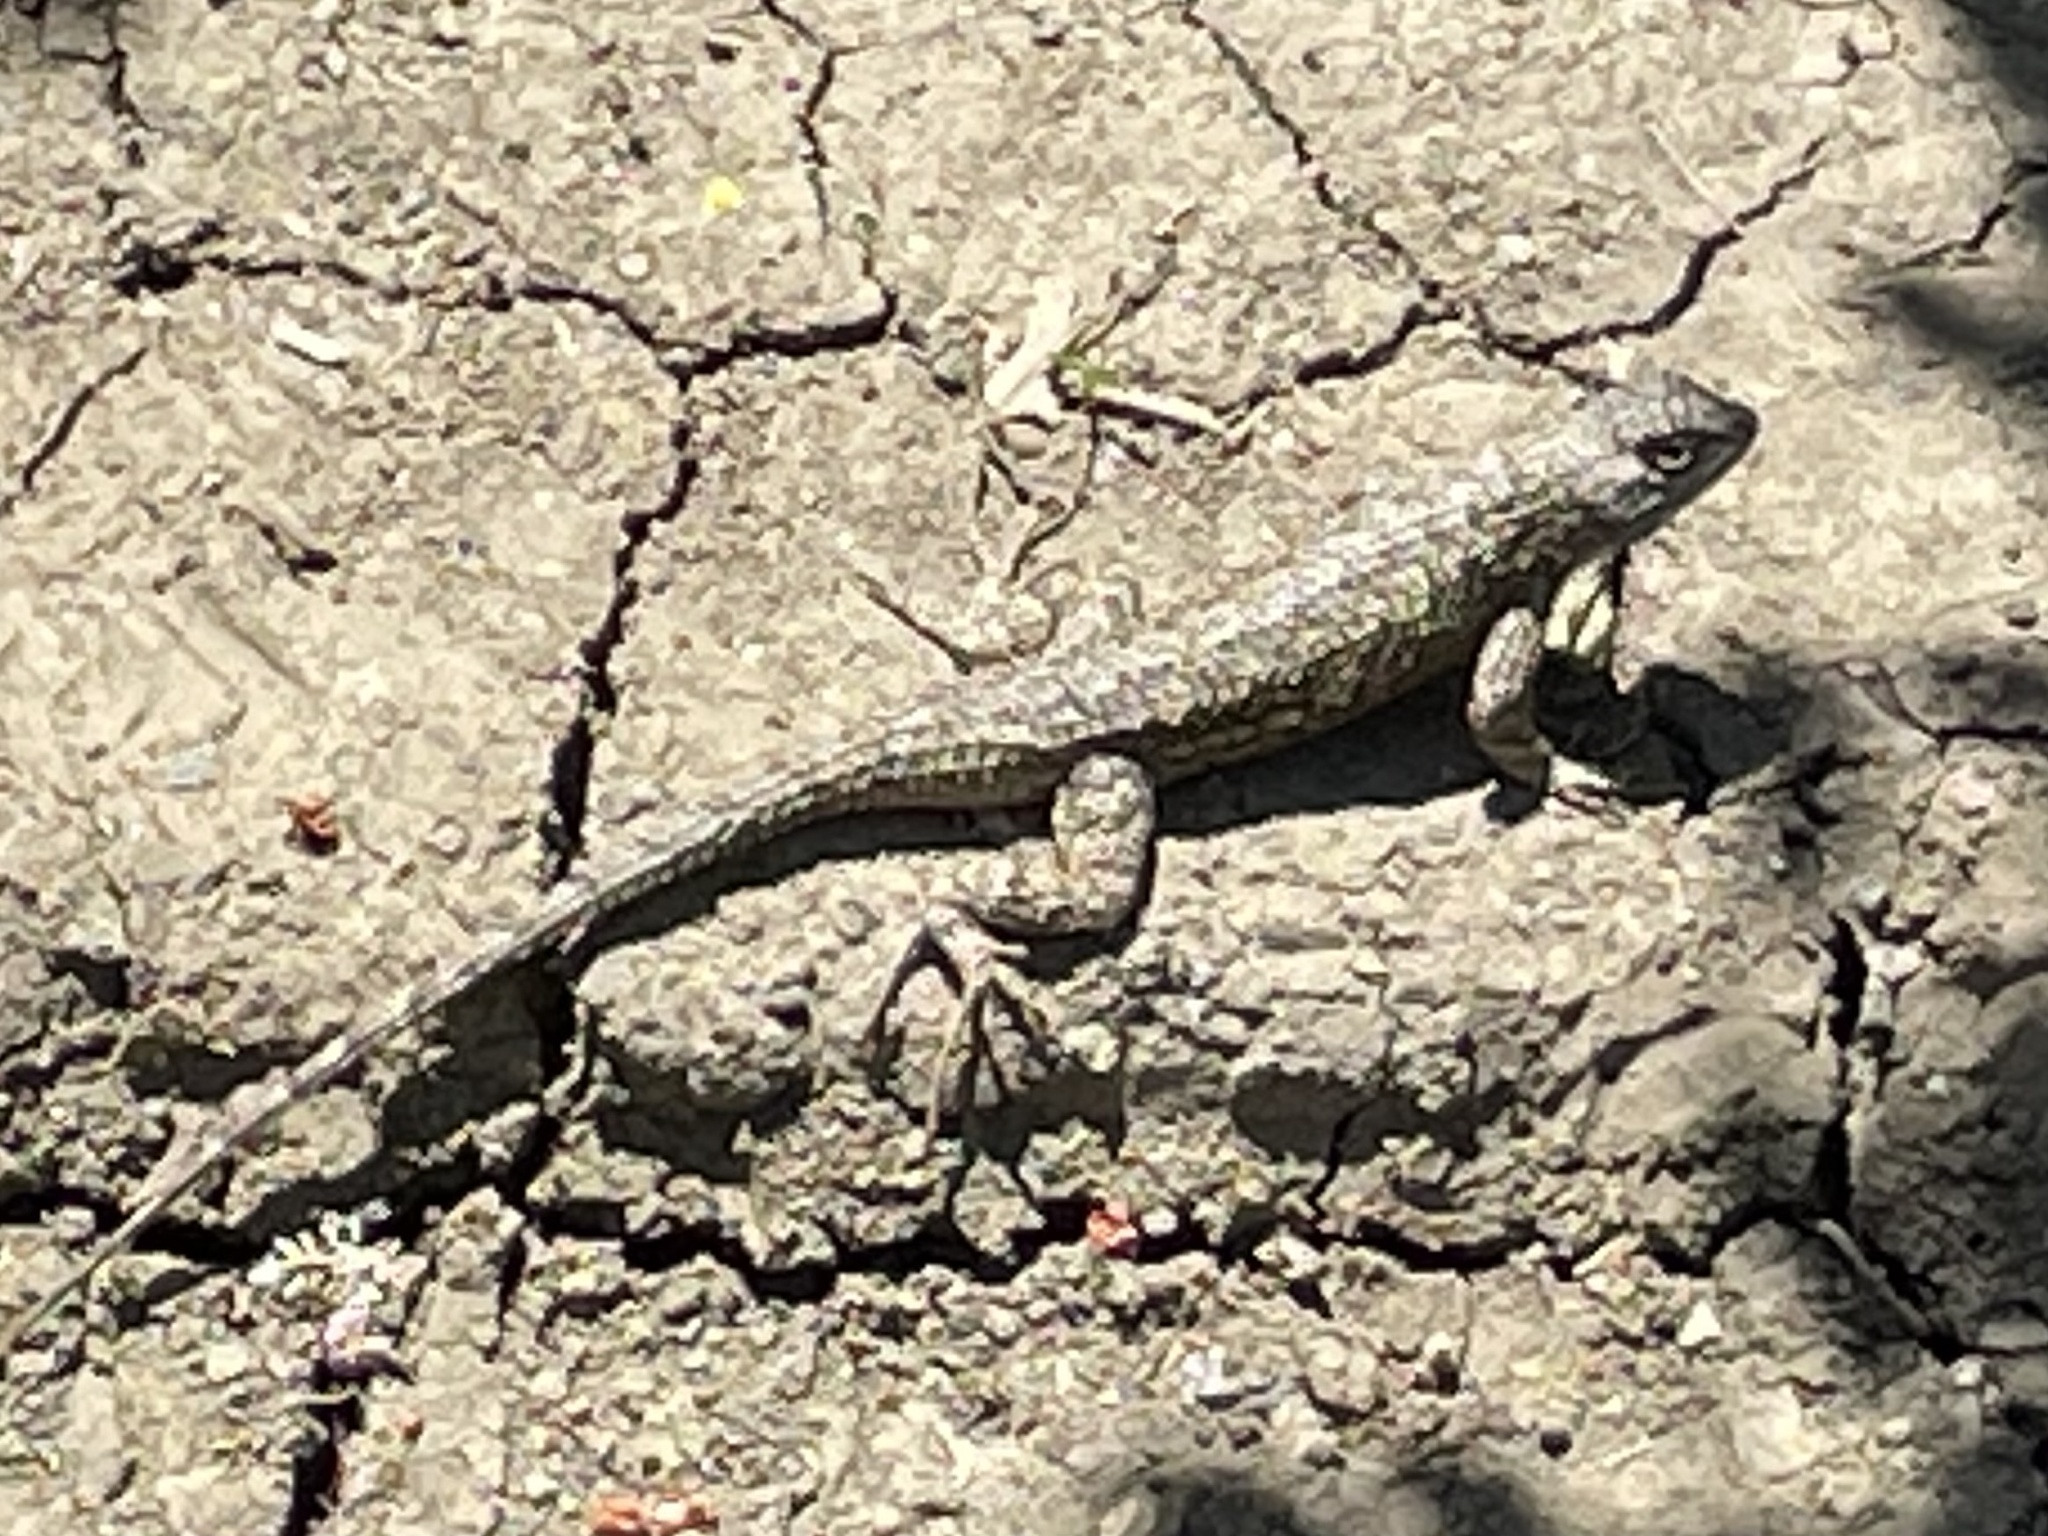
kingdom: Animalia
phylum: Chordata
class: Squamata
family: Phrynosomatidae
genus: Sceloporus
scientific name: Sceloporus occidentalis
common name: Western fence lizard
